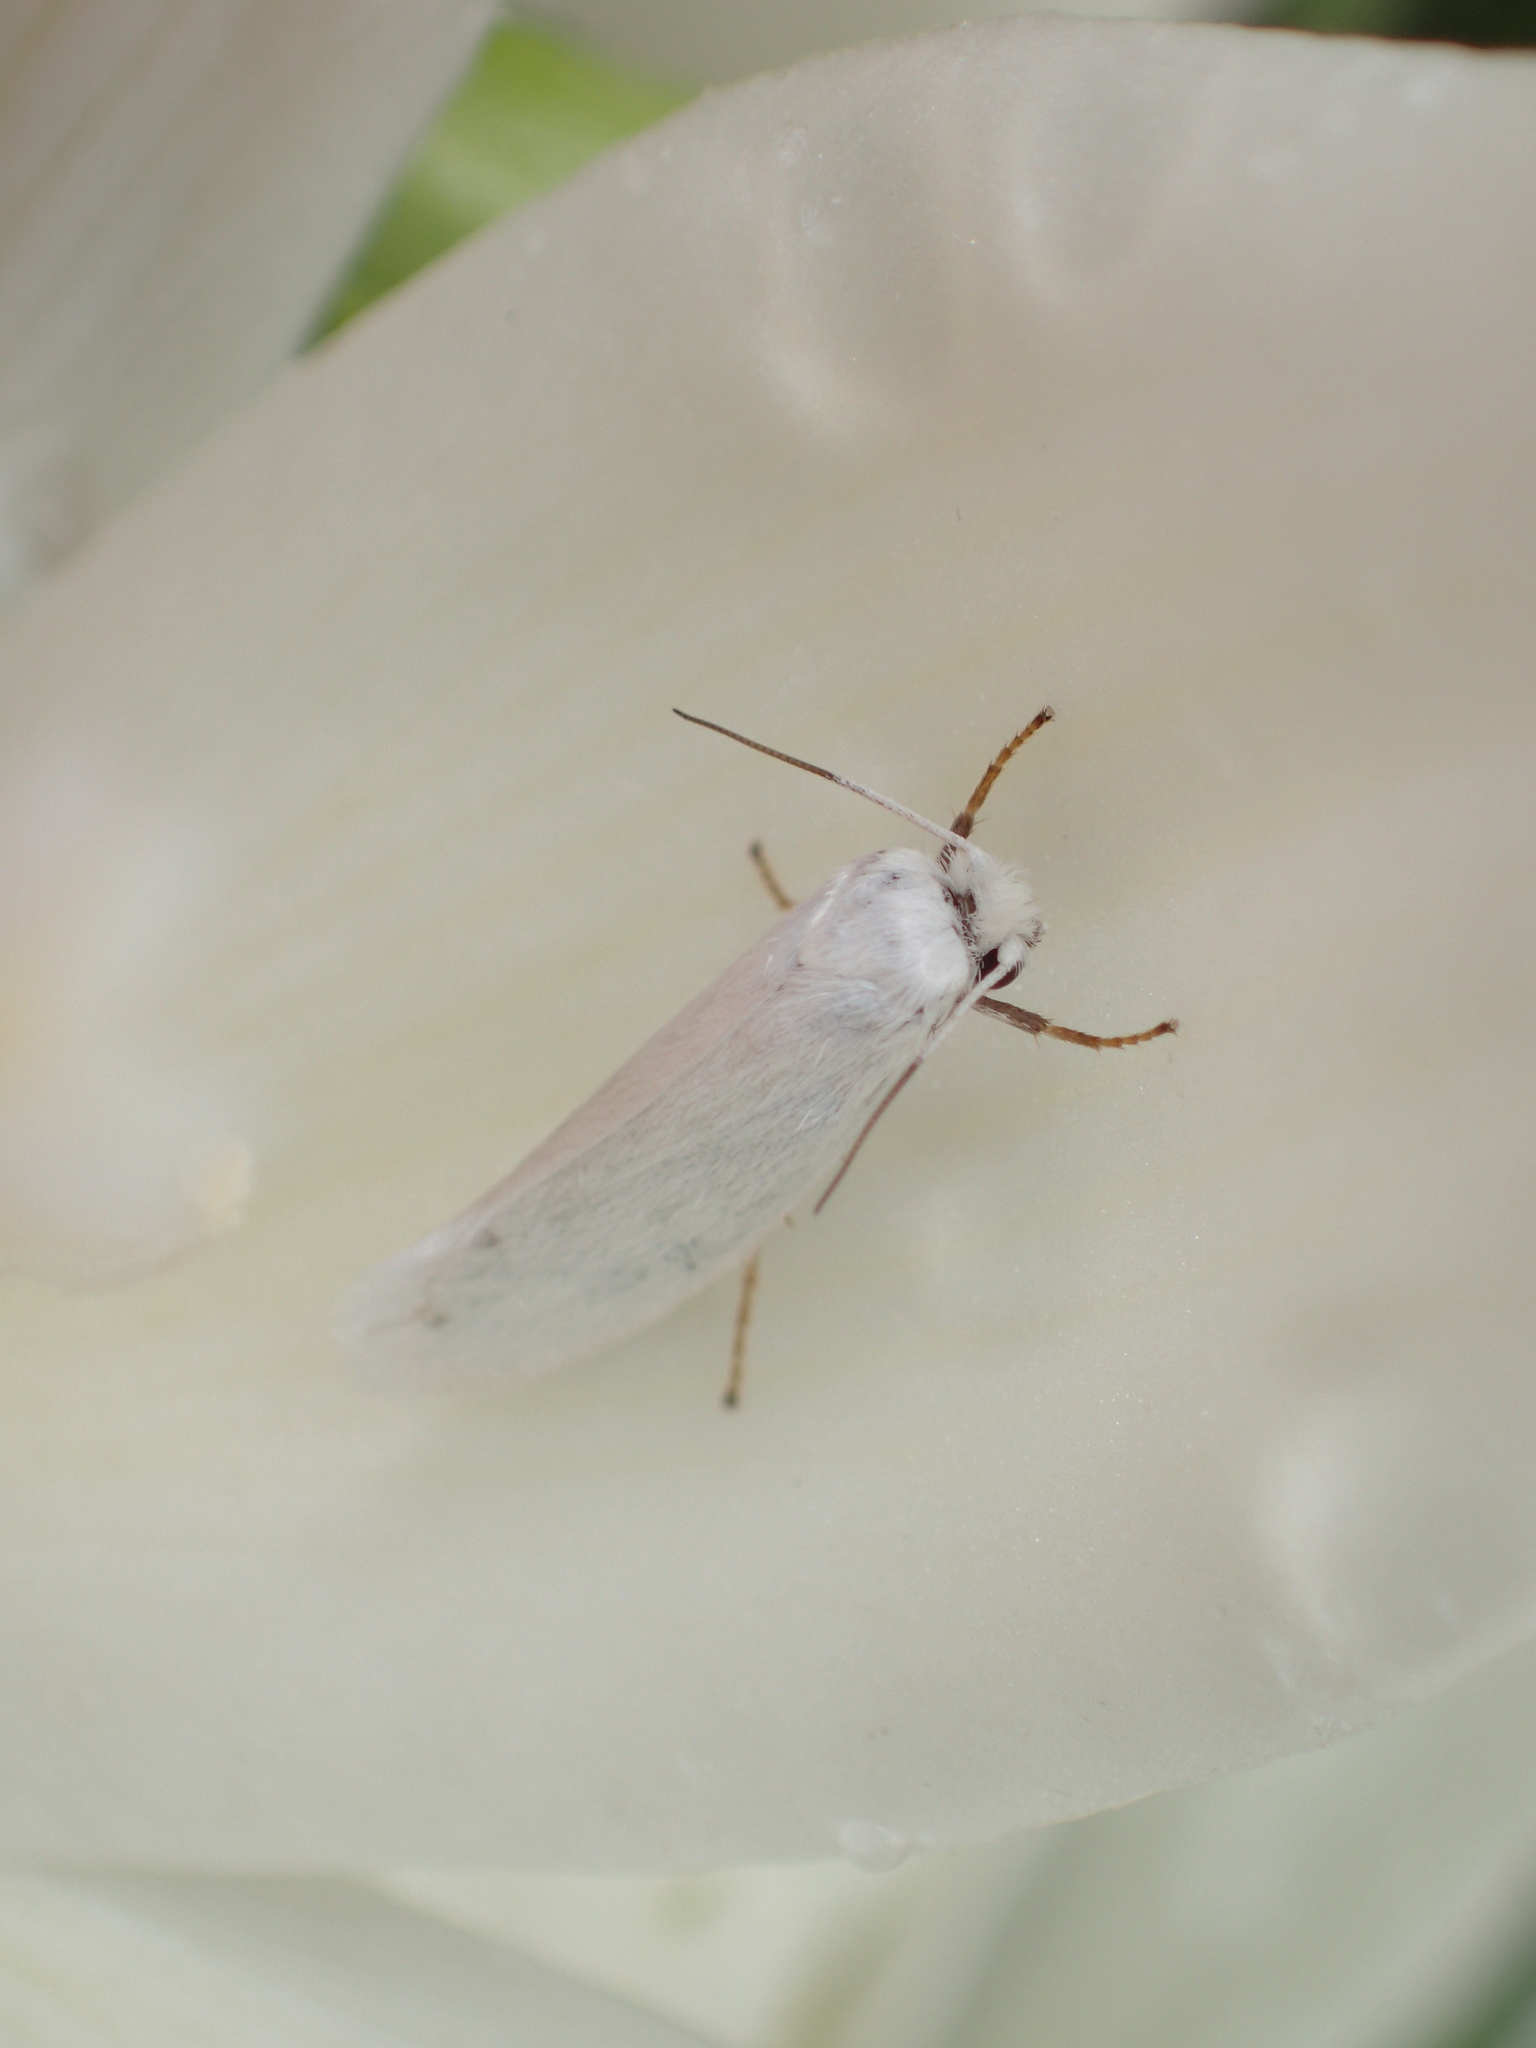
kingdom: Animalia
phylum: Arthropoda
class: Insecta
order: Lepidoptera
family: Prodoxidae
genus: Prodoxus
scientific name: Prodoxus decipiens
